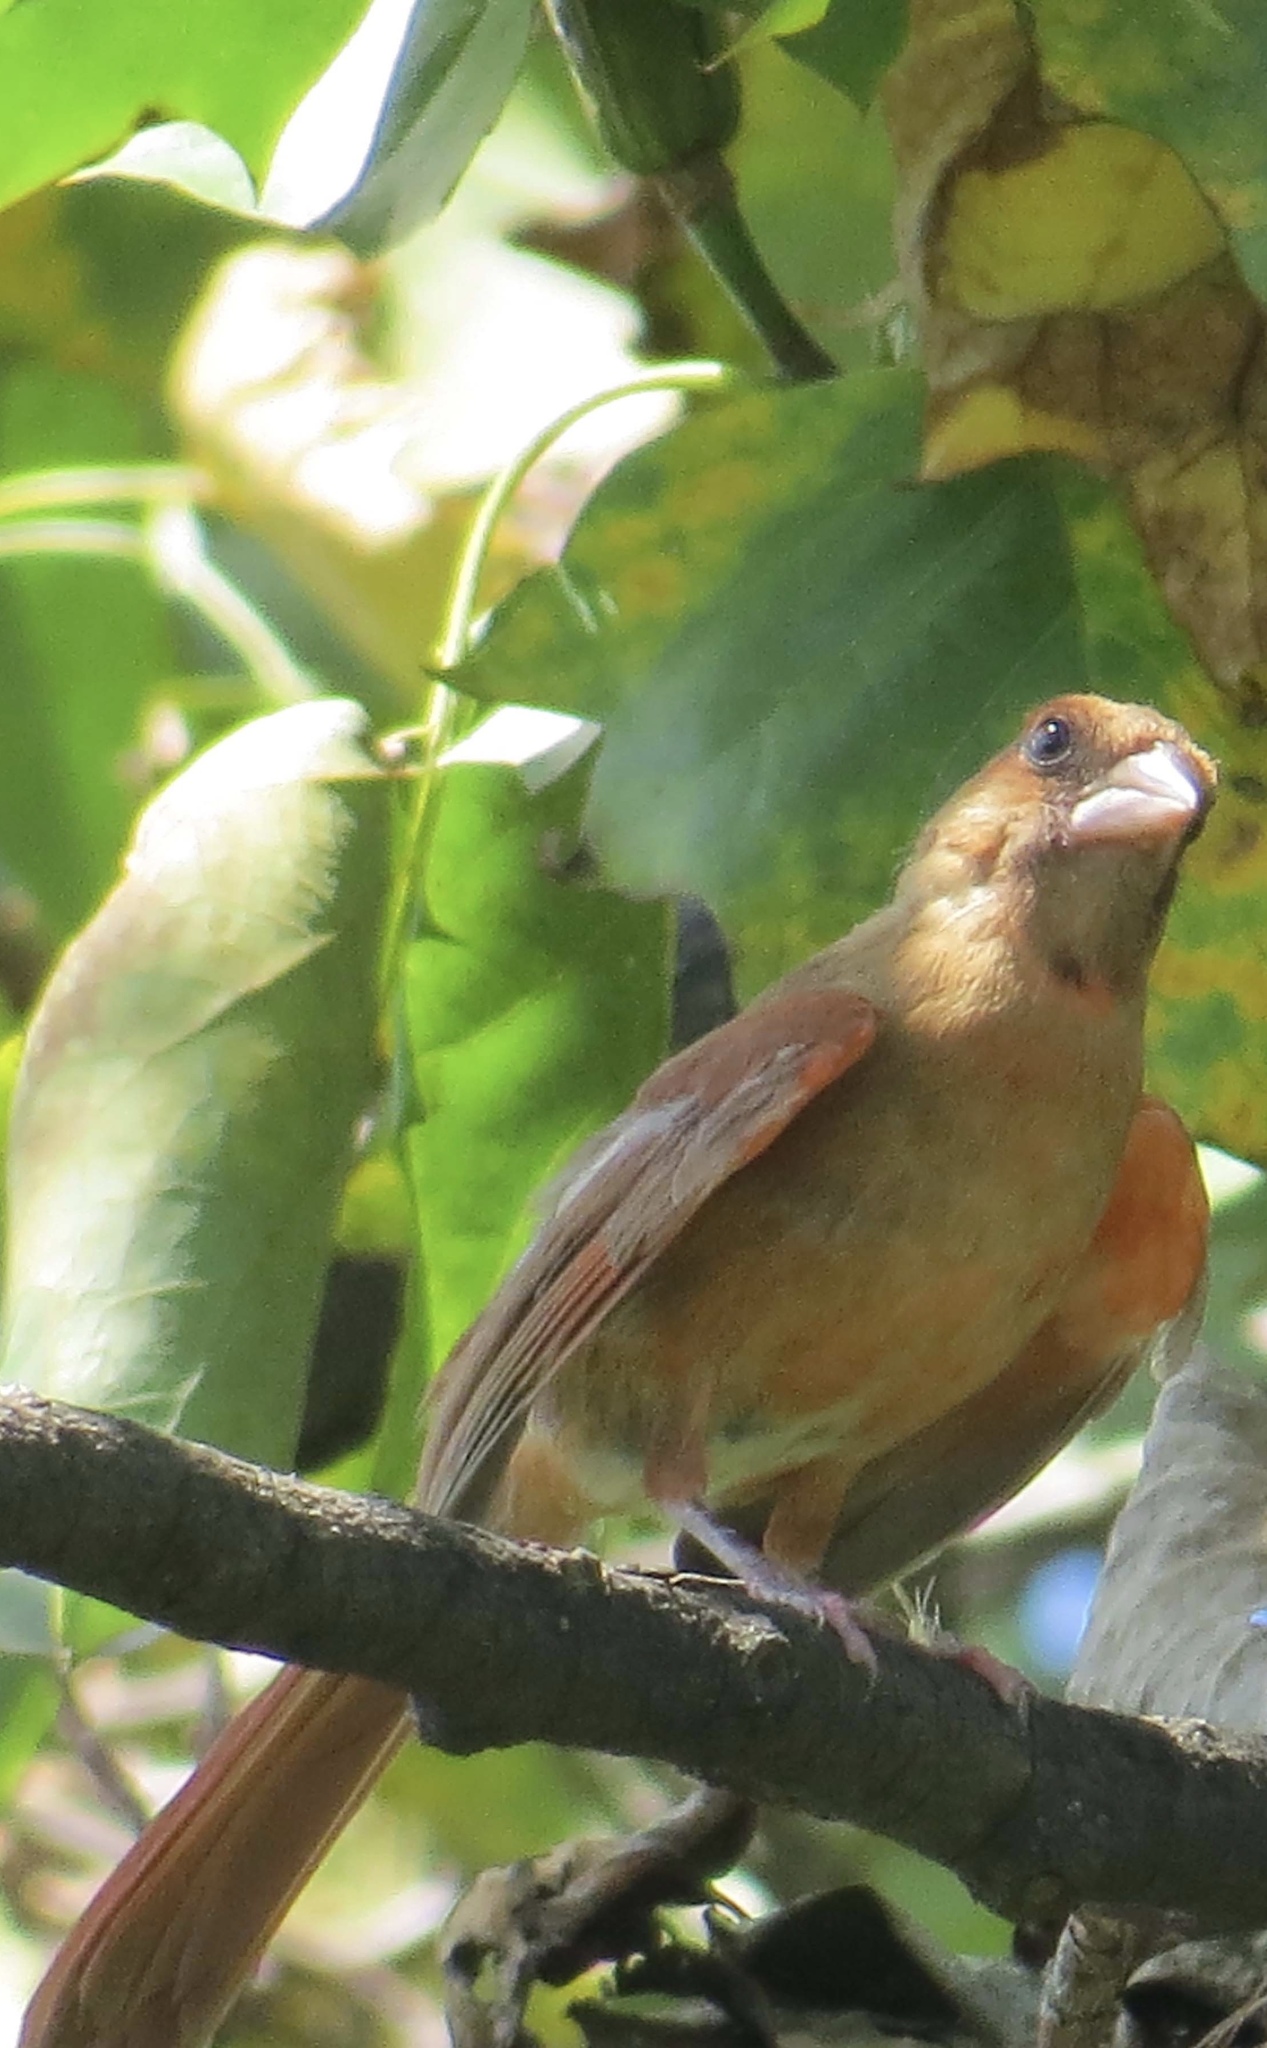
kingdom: Animalia
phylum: Chordata
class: Aves
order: Passeriformes
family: Cardinalidae
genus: Cardinalis
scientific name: Cardinalis cardinalis
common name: Northern cardinal
